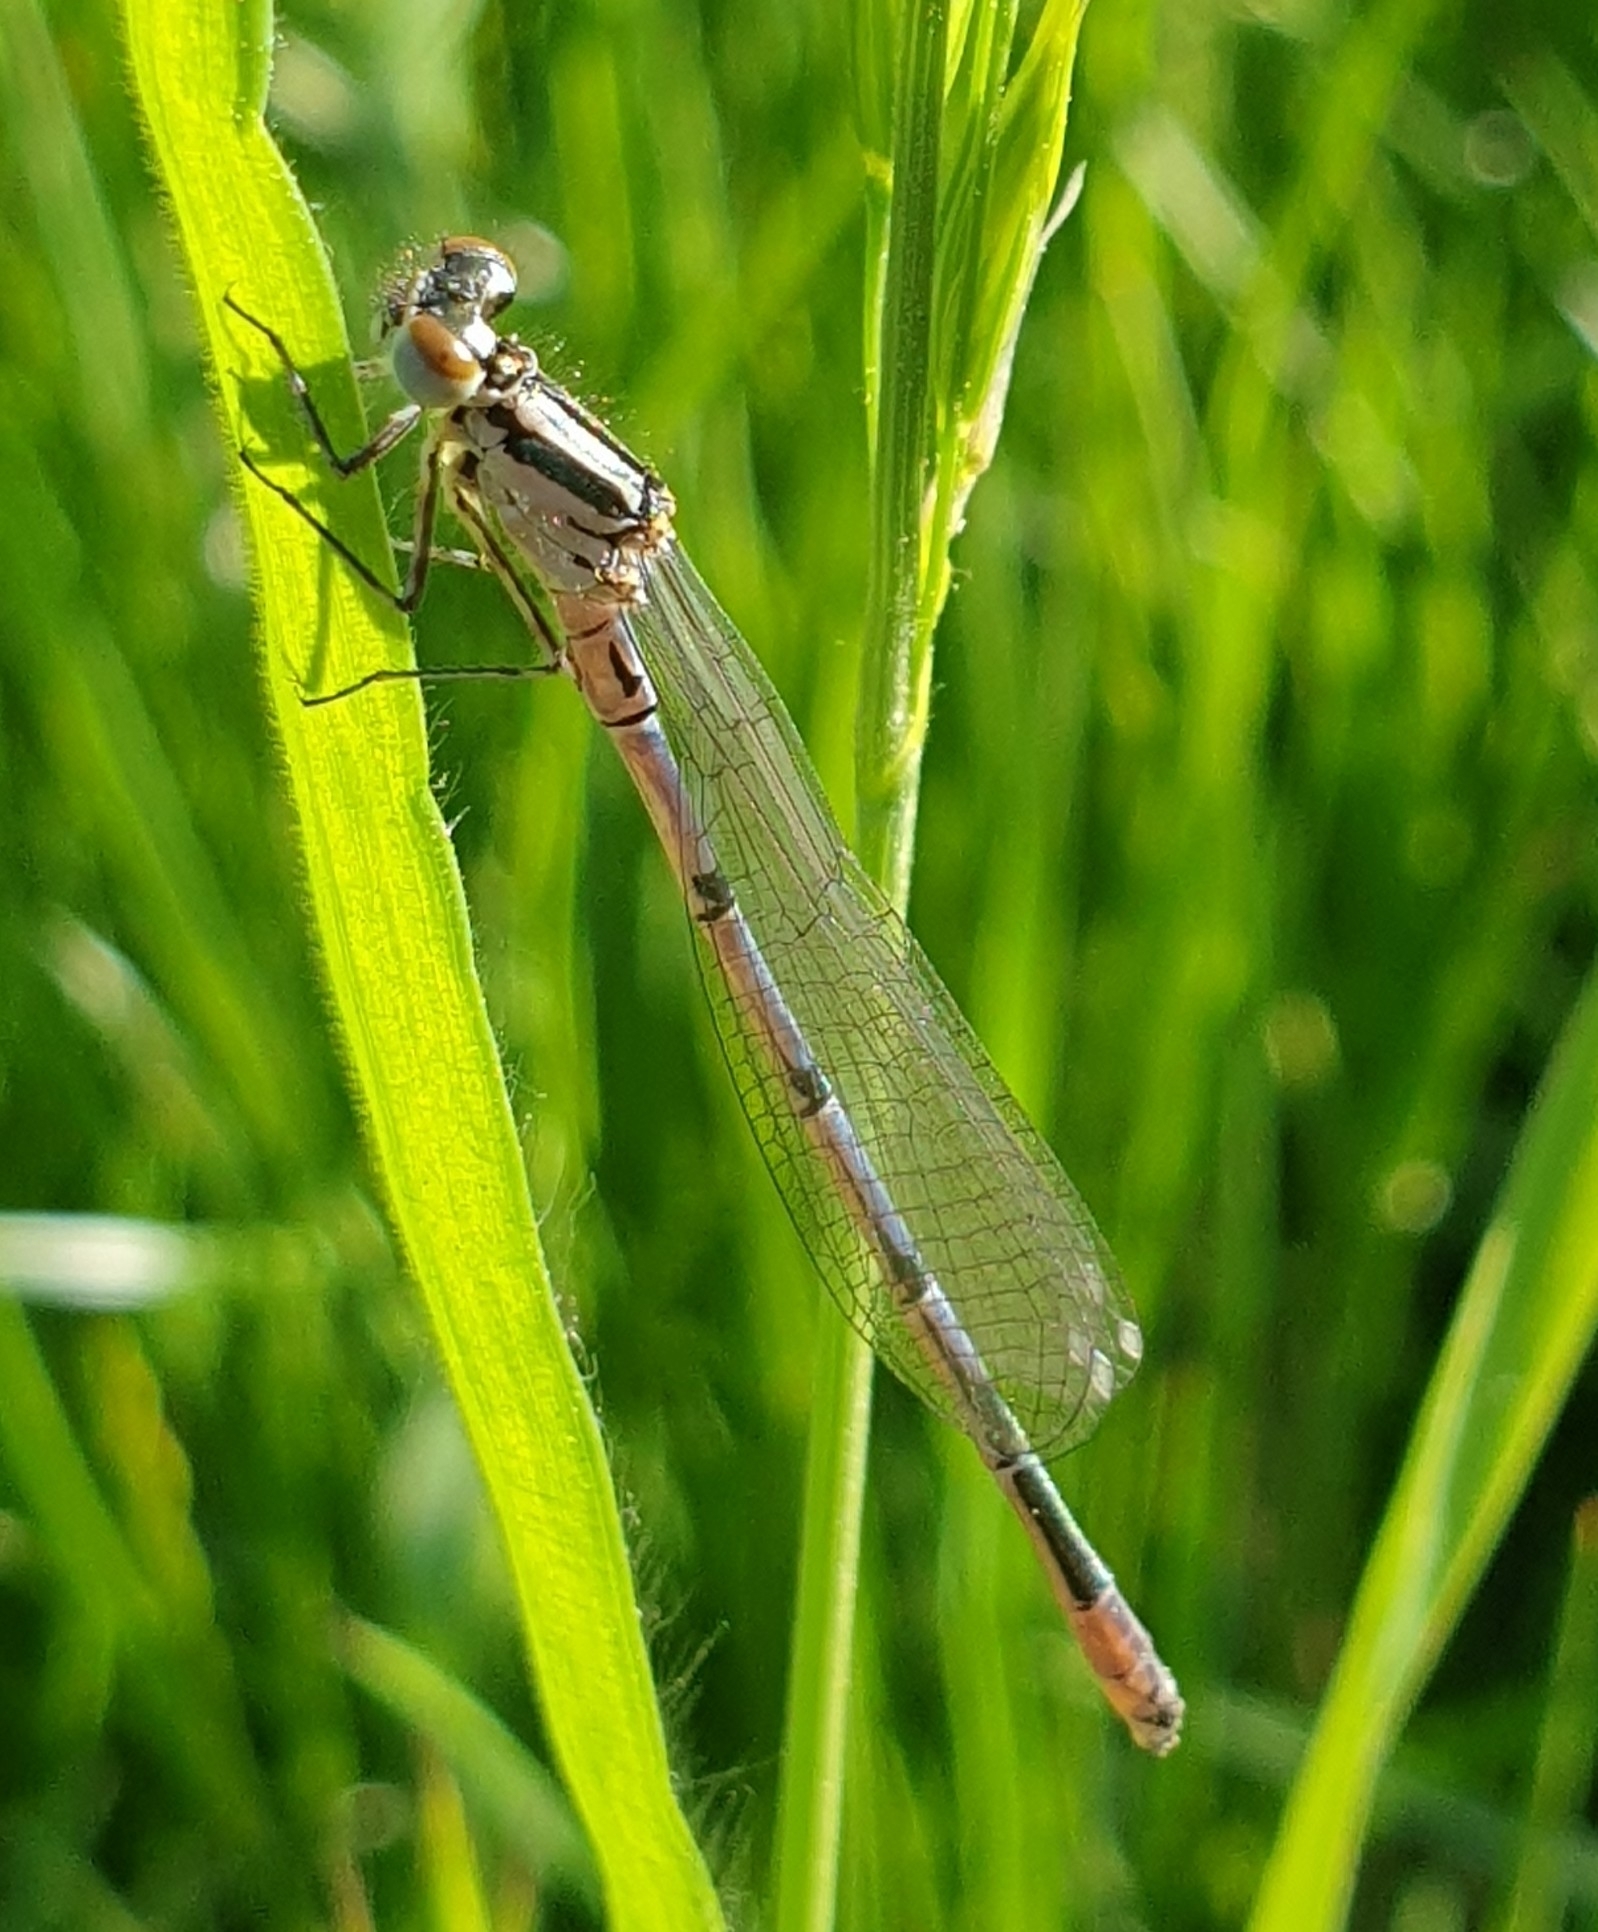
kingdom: Animalia
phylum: Arthropoda
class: Insecta
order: Odonata
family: Coenagrionidae
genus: Coenagrion
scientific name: Coenagrion puella
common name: Azure damselfly
